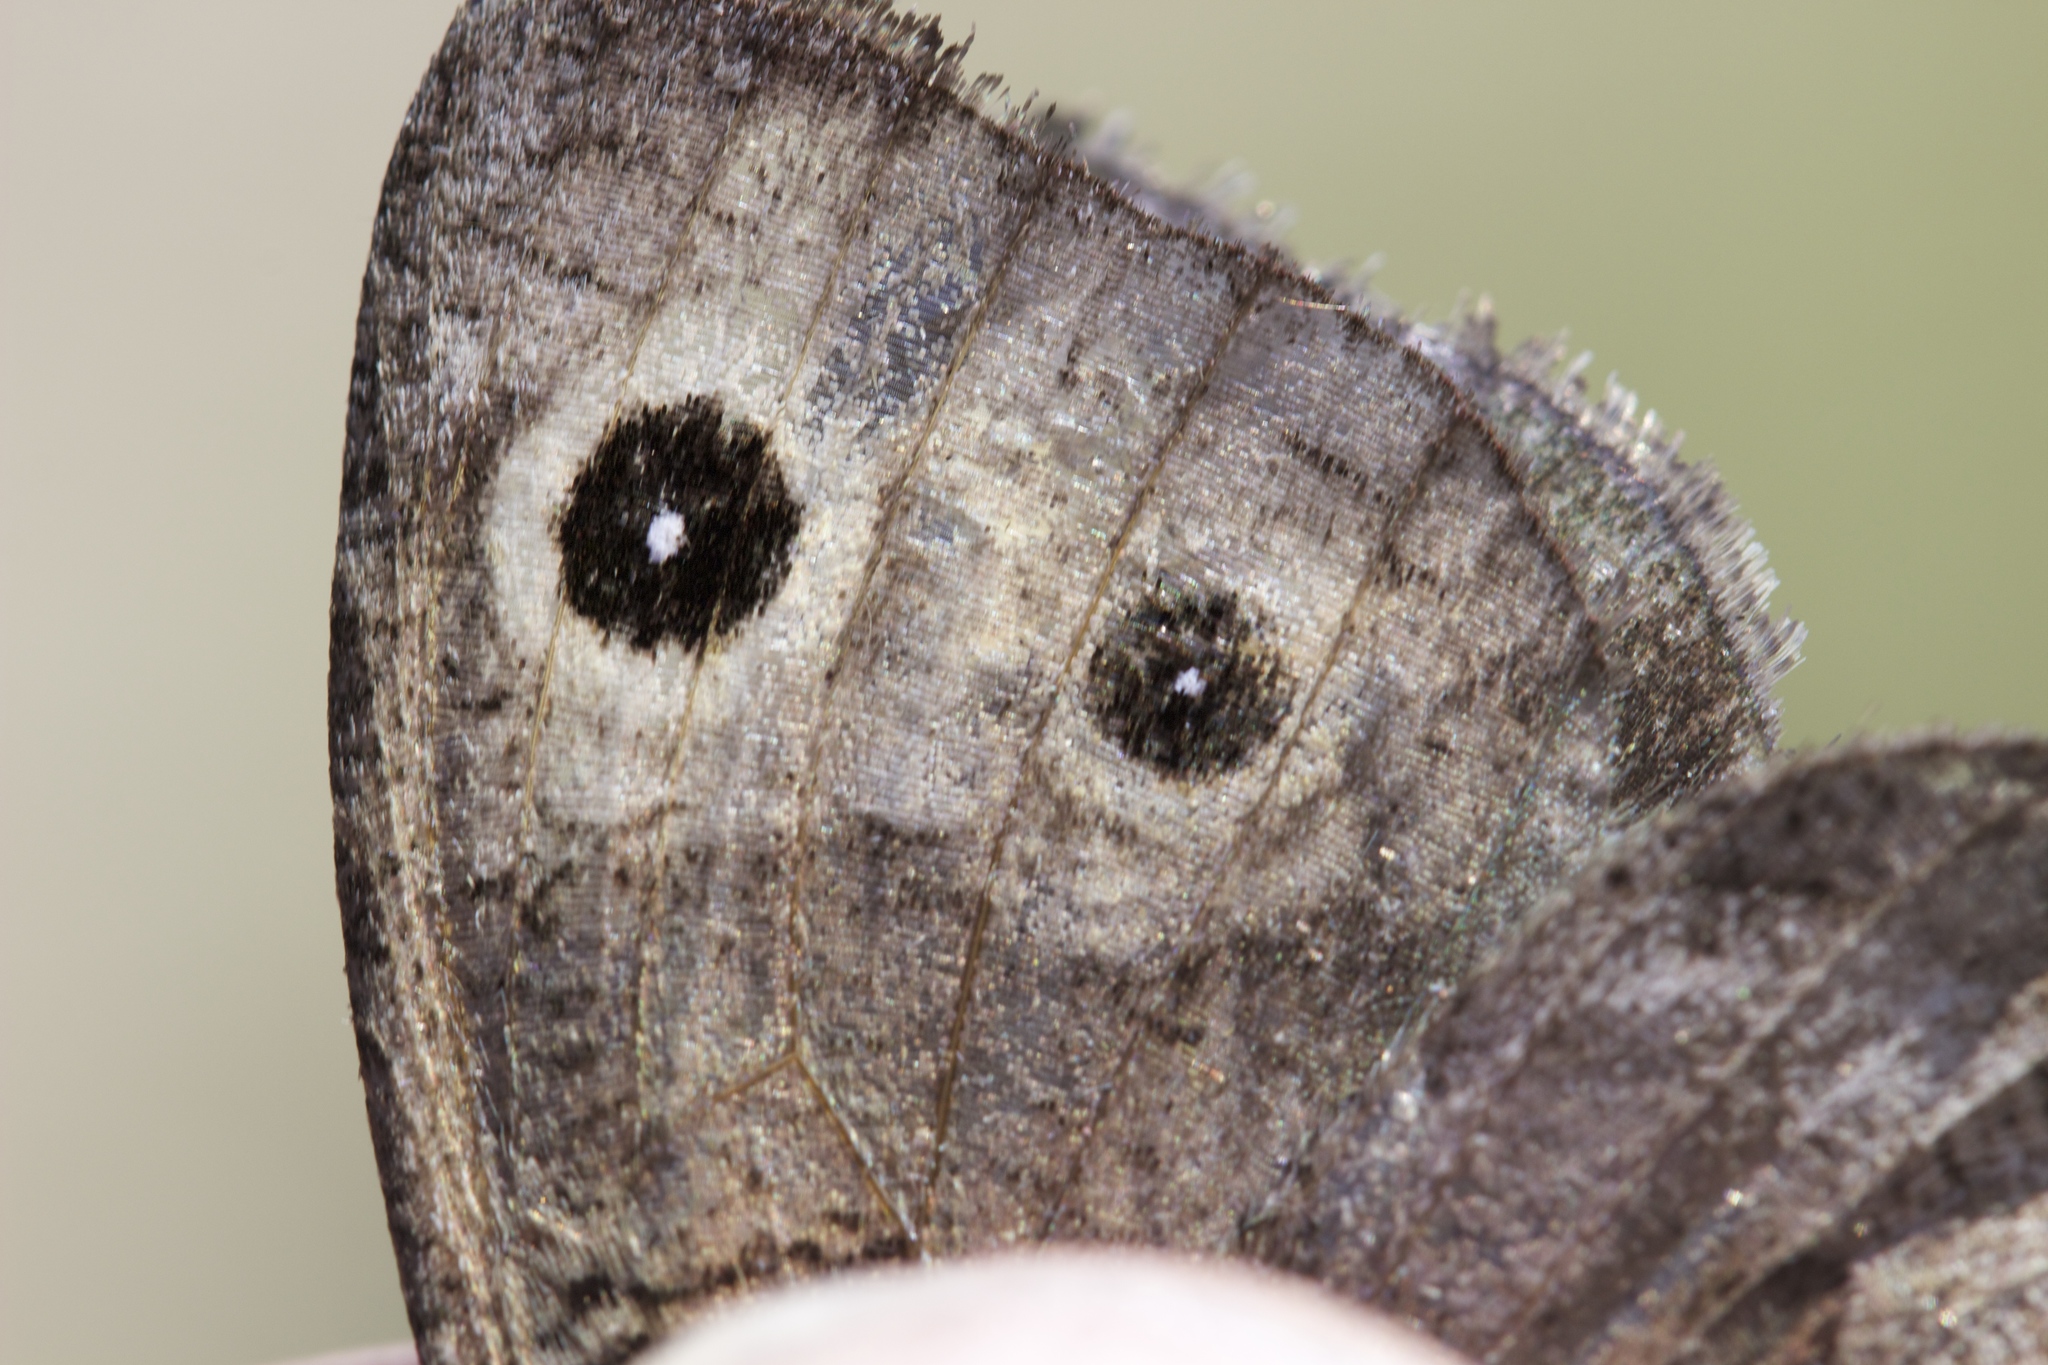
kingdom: Animalia
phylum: Arthropoda
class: Insecta
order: Lepidoptera
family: Nymphalidae
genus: Cercyonis
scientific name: Cercyonis sthenele
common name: Great basin wood-nymph
